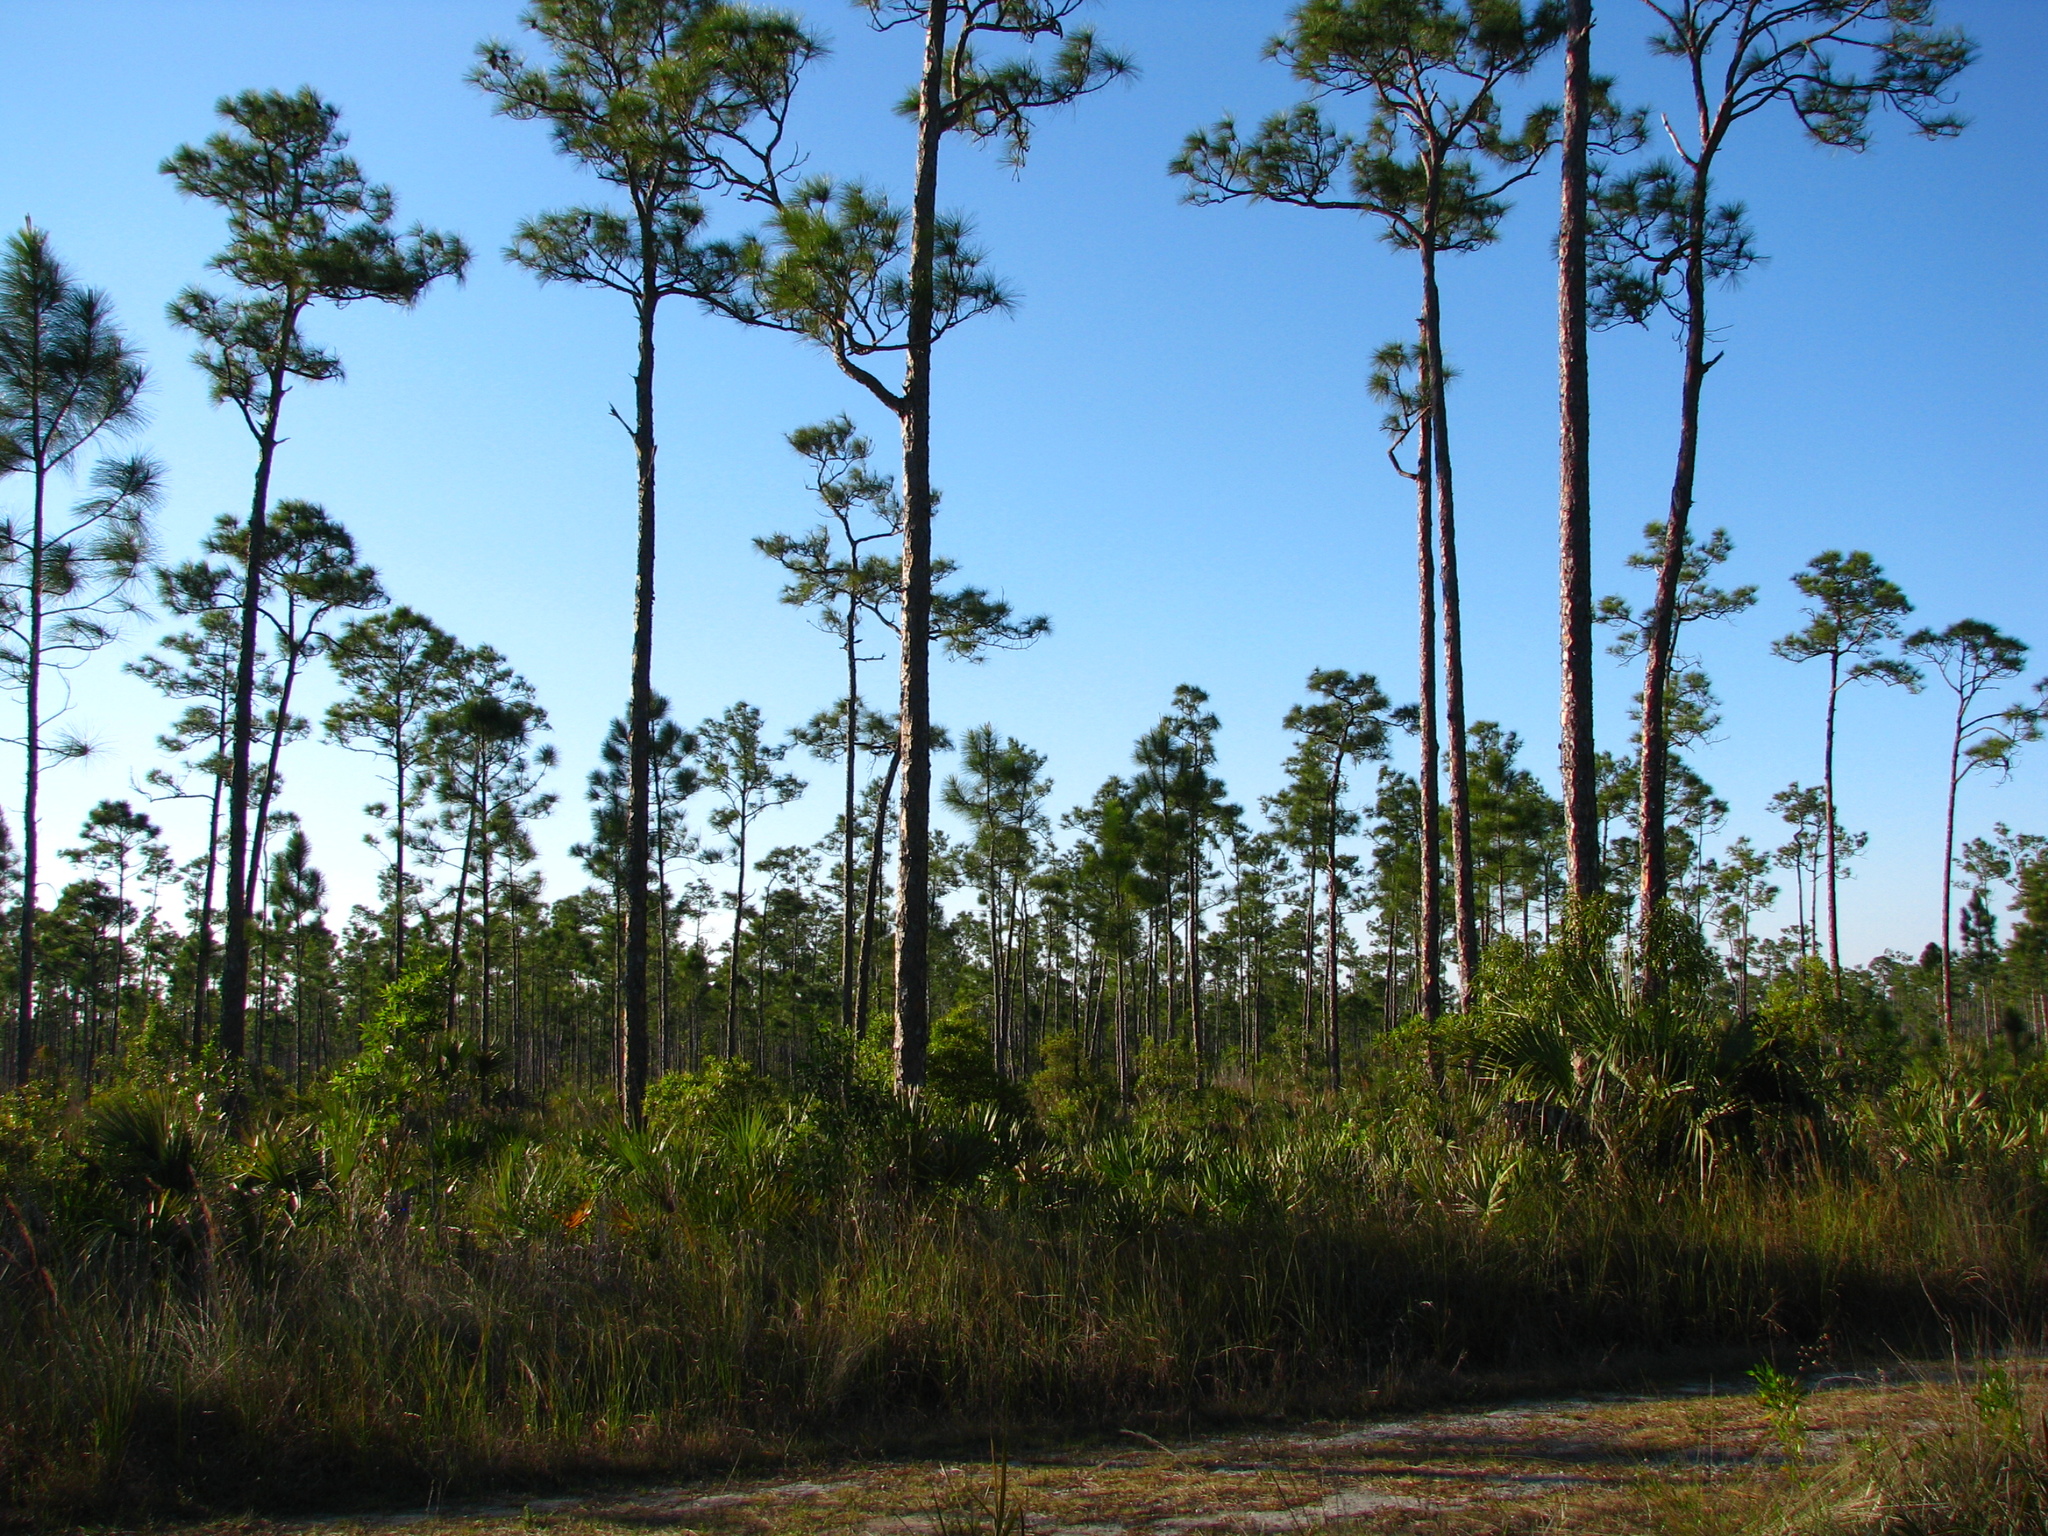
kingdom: Plantae
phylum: Tracheophyta
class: Pinopsida
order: Pinales
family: Pinaceae
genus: Pinus
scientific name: Pinus elliottii
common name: Slash pine
